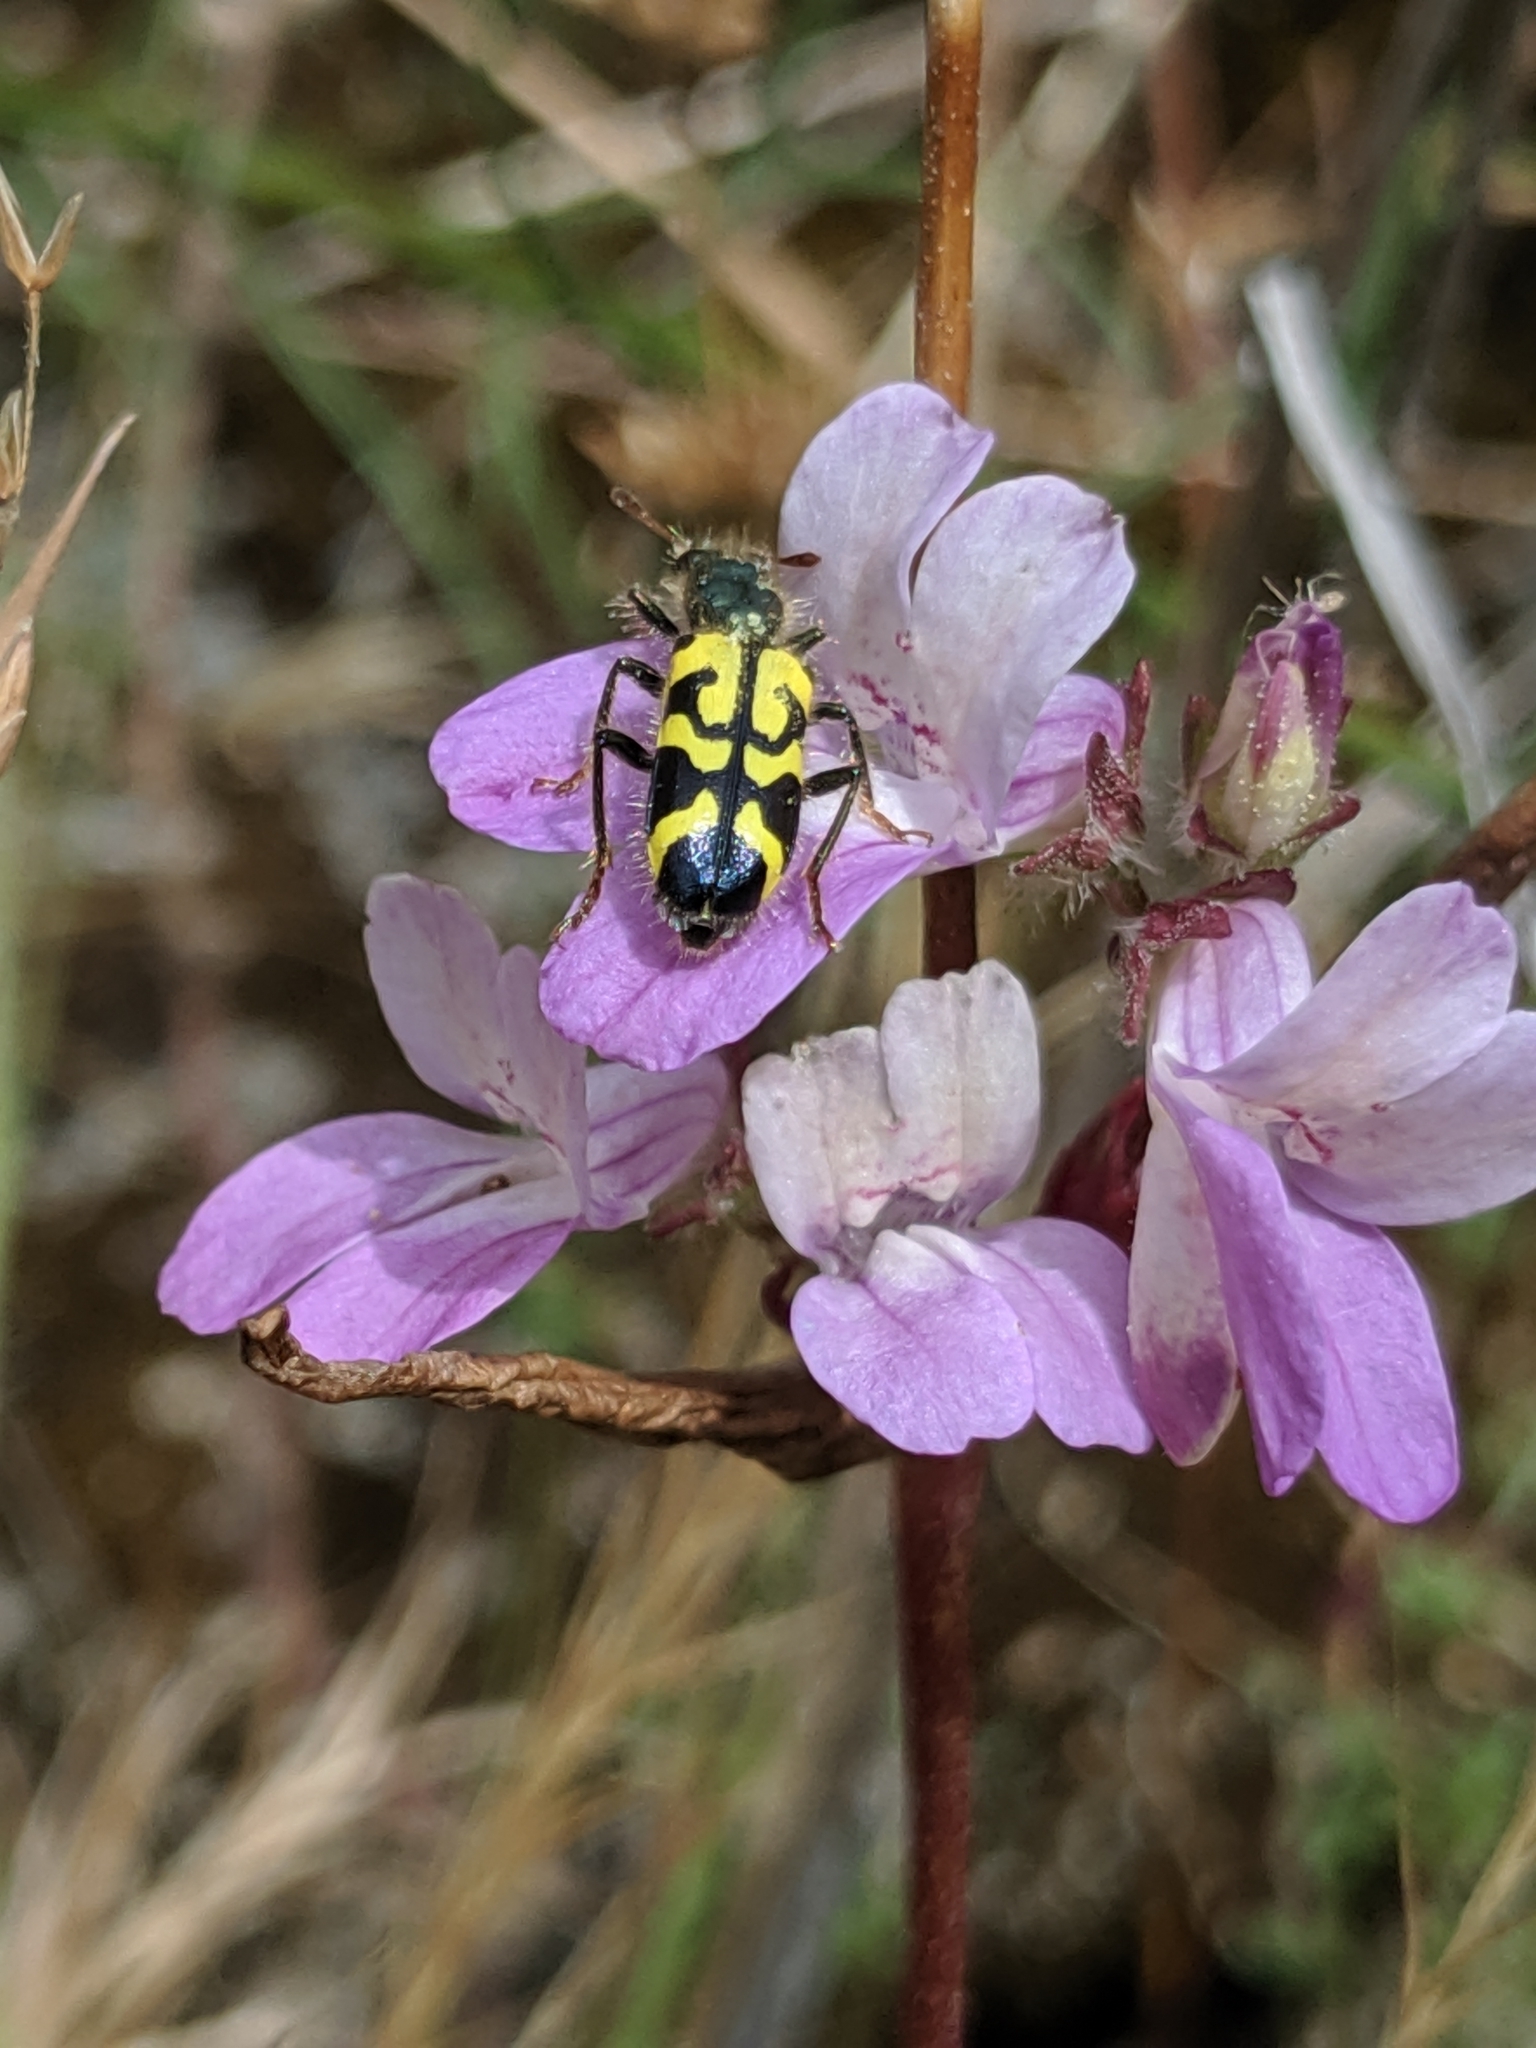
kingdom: Animalia
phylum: Arthropoda
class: Insecta
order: Coleoptera
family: Cleridae
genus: Trichodes
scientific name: Trichodes ornatus
